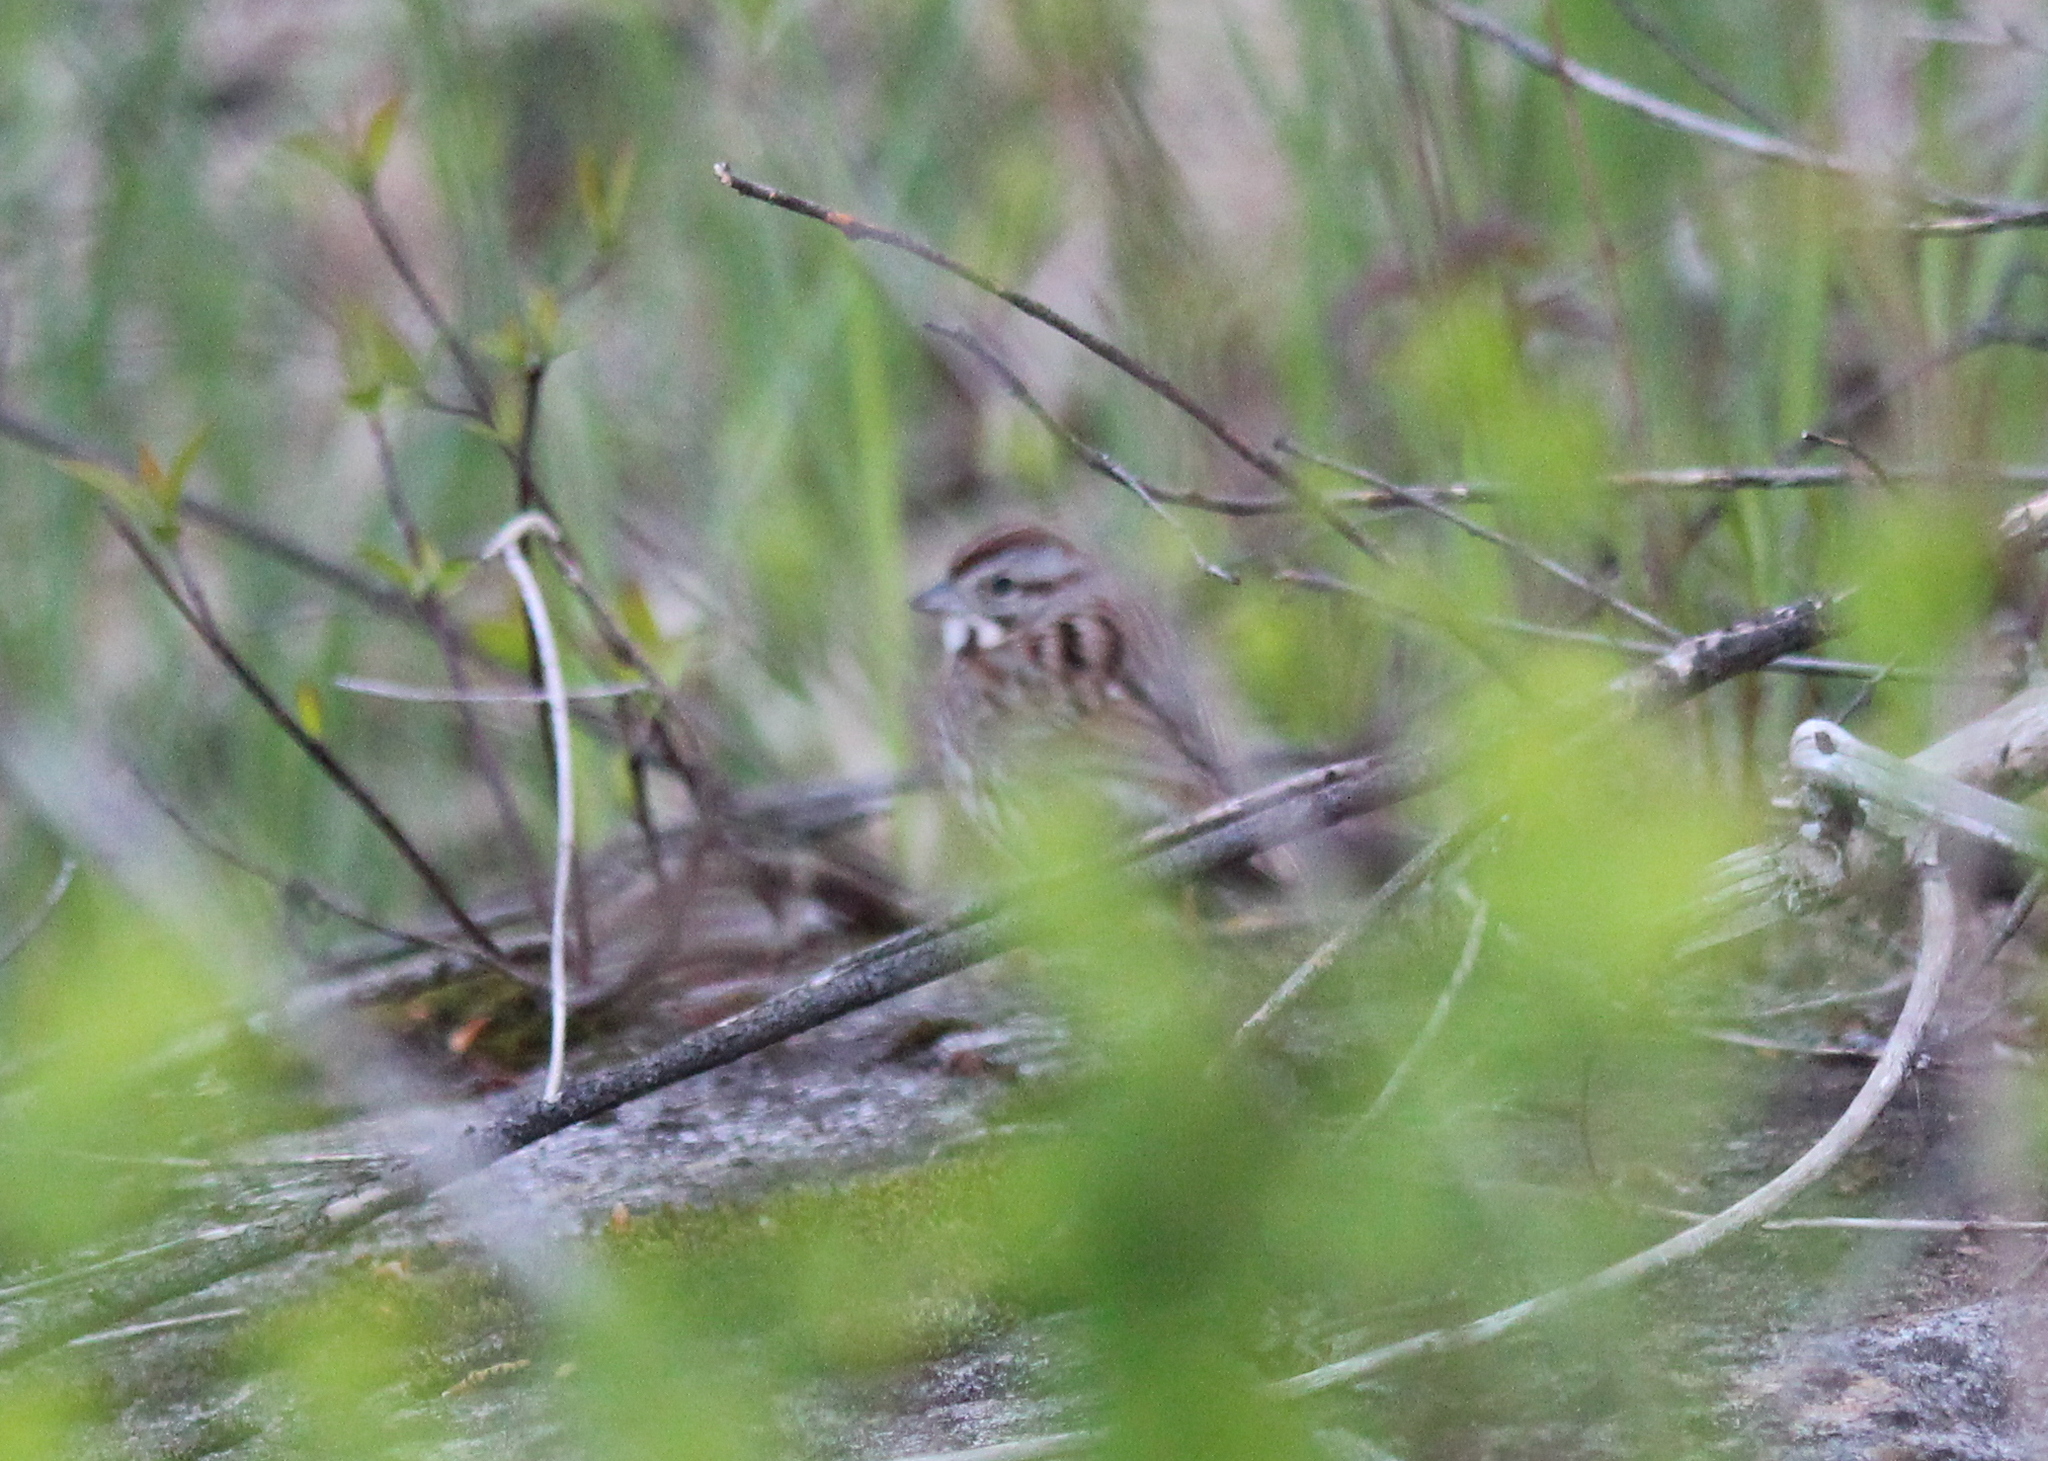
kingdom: Animalia
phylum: Chordata
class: Aves
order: Passeriformes
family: Passerellidae
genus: Melospiza
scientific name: Melospiza melodia
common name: Song sparrow
